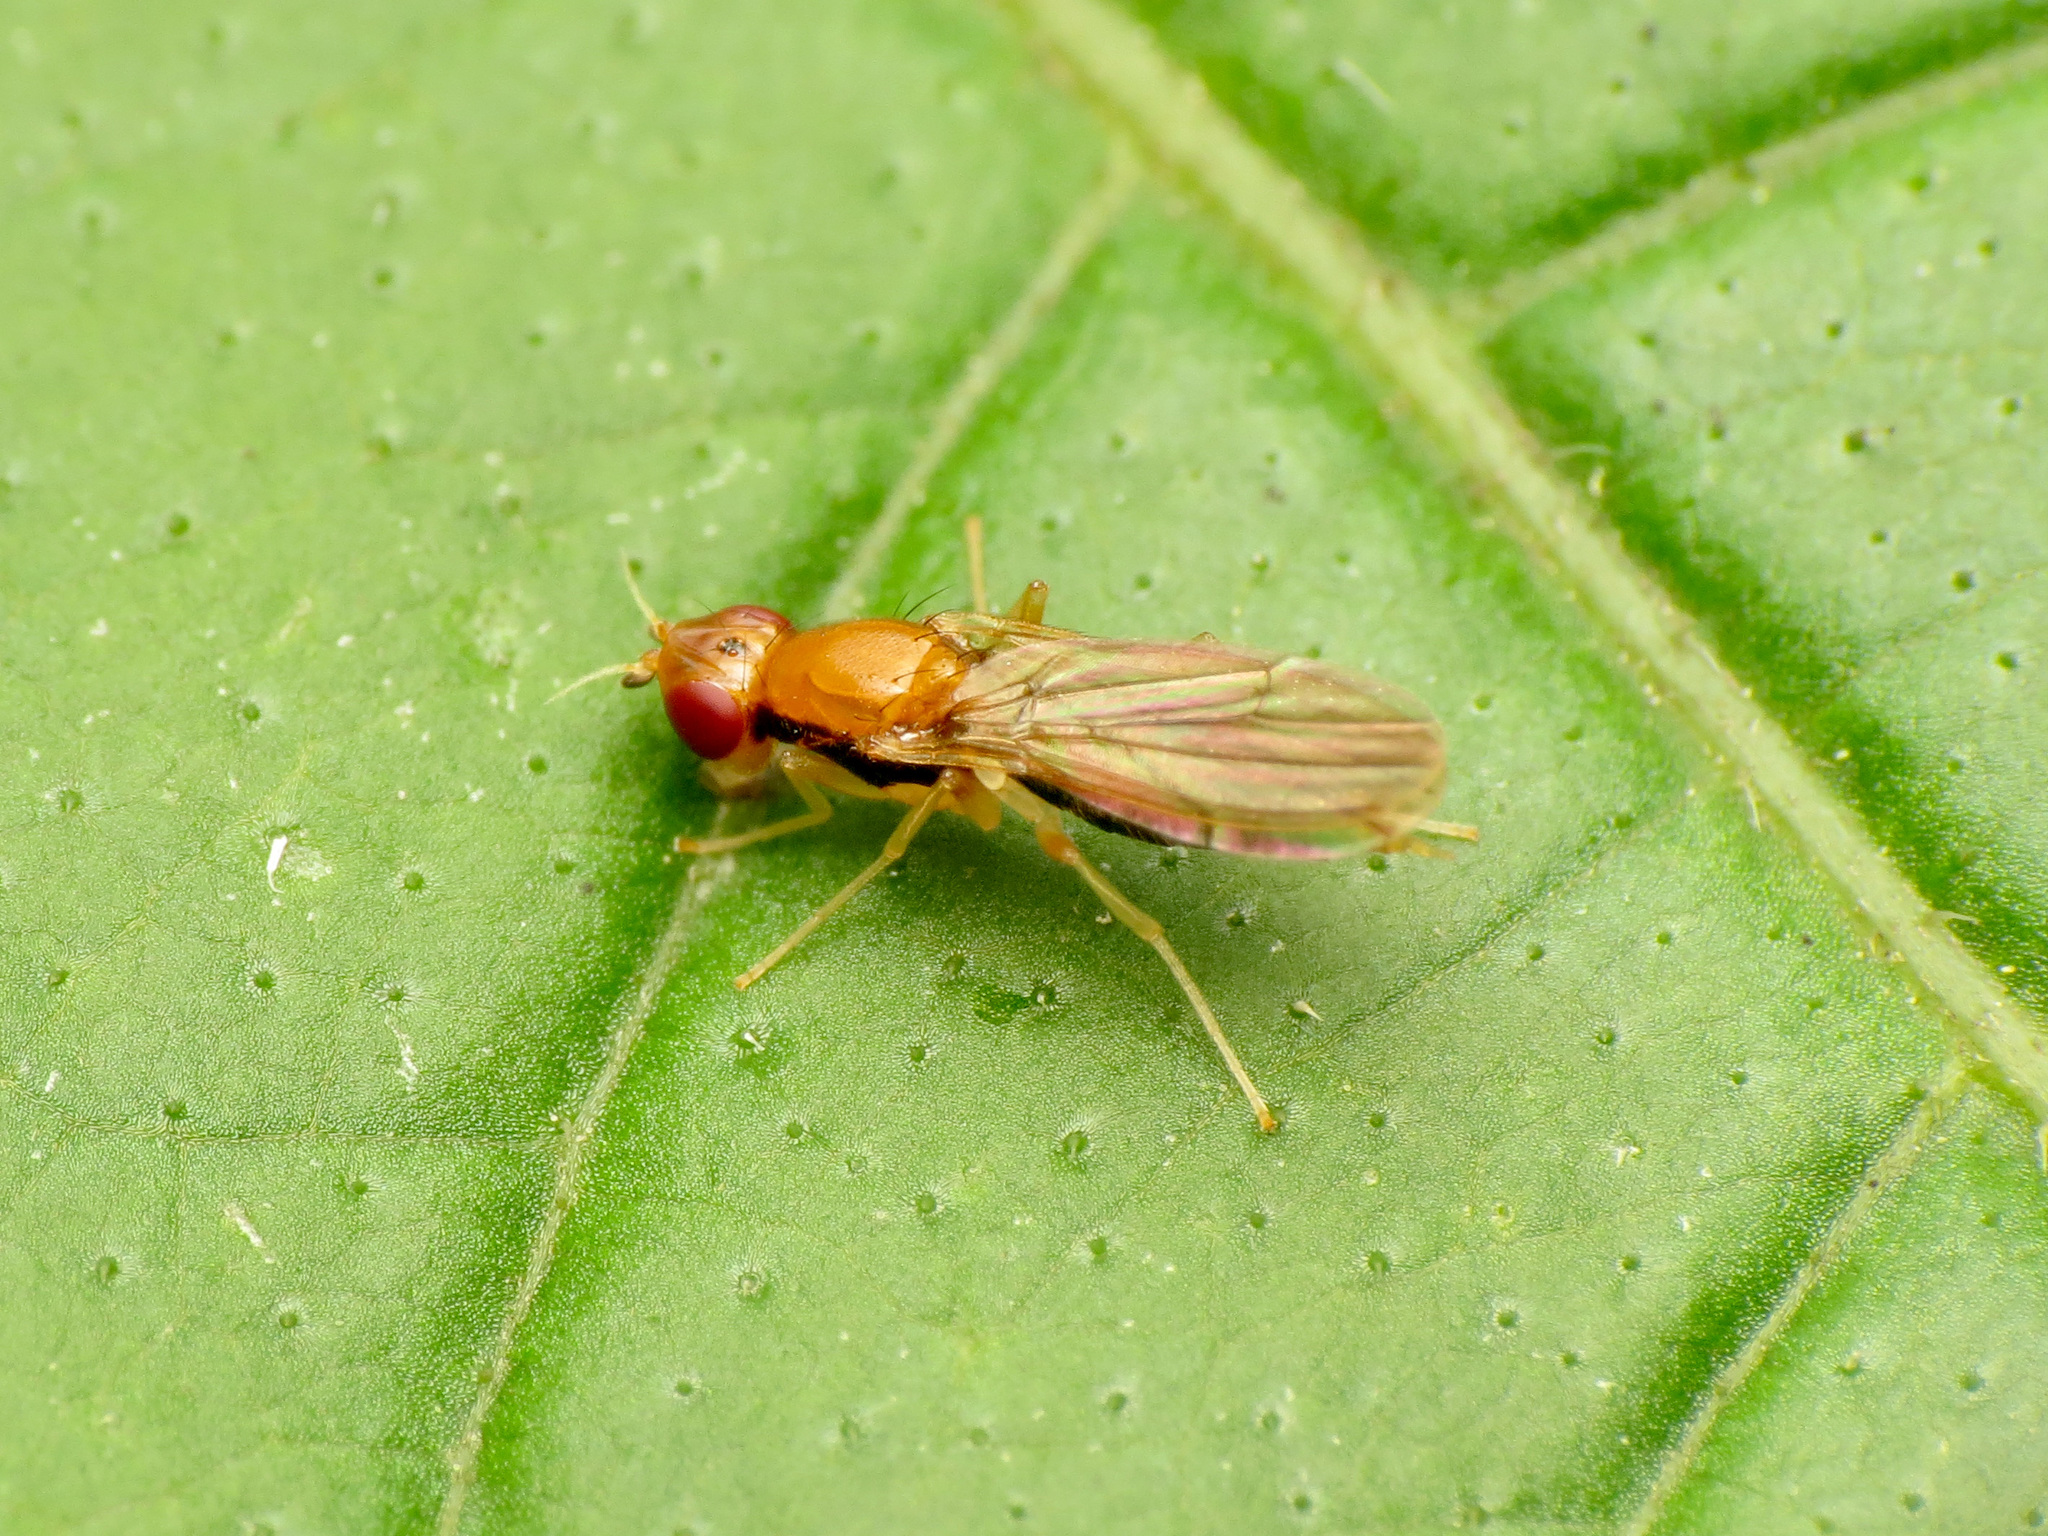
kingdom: Animalia
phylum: Arthropoda
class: Insecta
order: Diptera
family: Psilidae
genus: Psila
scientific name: Psila lateralis
